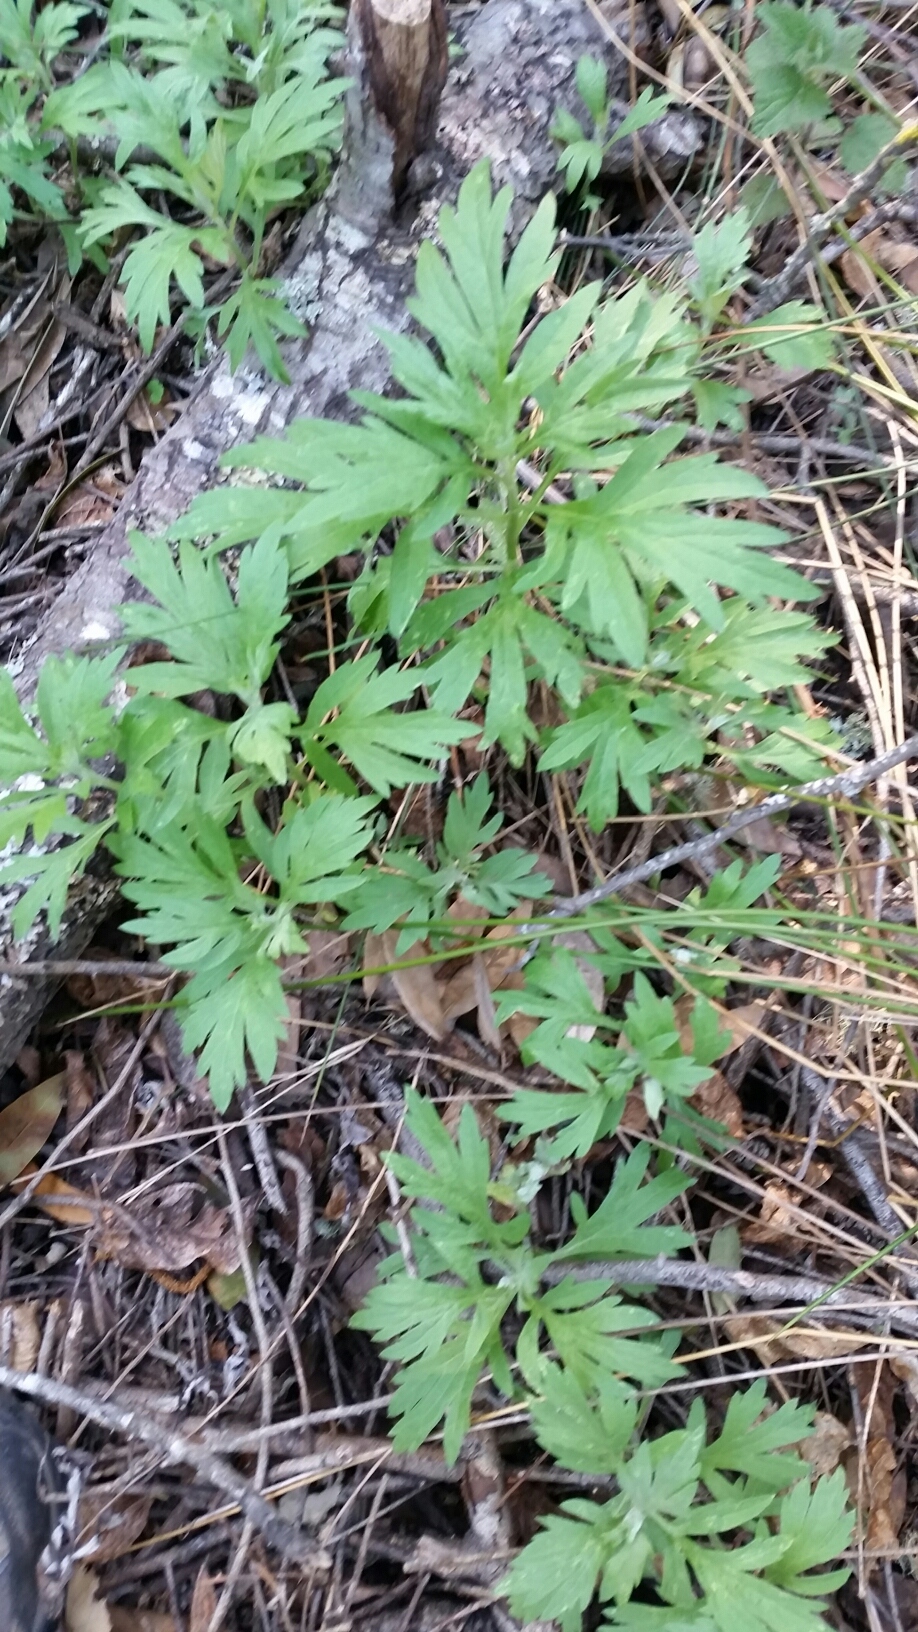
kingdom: Plantae
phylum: Tracheophyta
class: Magnoliopsida
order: Asterales
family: Asteraceae
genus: Artemisia
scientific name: Artemisia douglasiana
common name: Northwest mugwort
